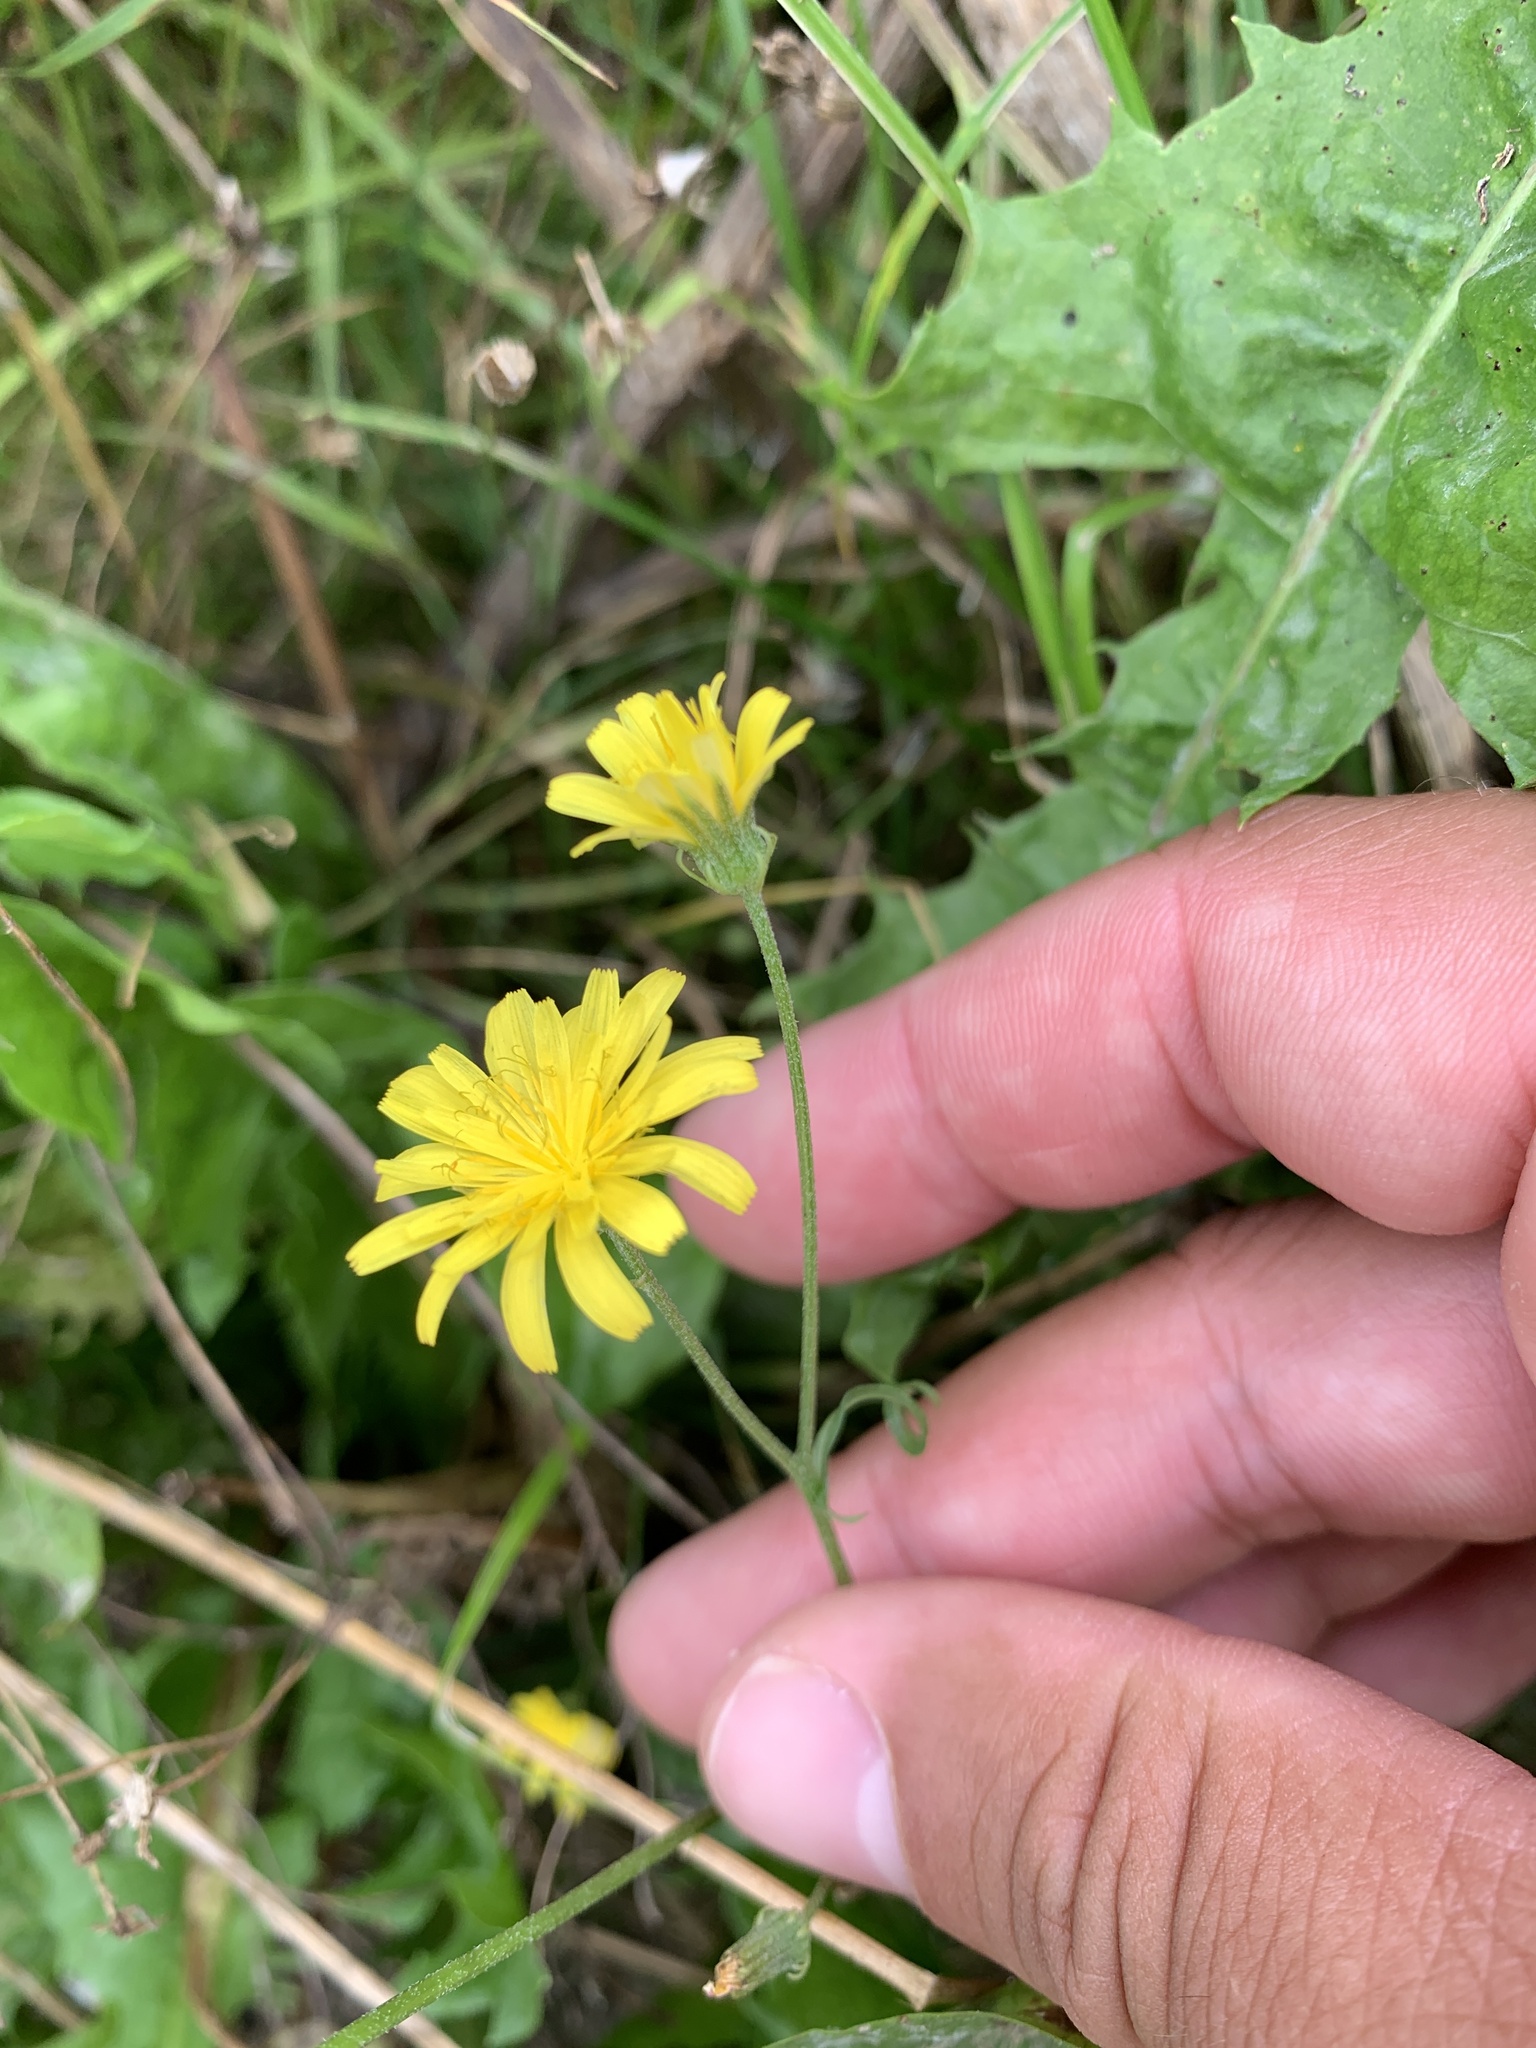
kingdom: Plantae
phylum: Tracheophyta
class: Magnoliopsida
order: Asterales
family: Asteraceae
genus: Crepis
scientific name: Crepis capillaris
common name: Smooth hawksbeard
